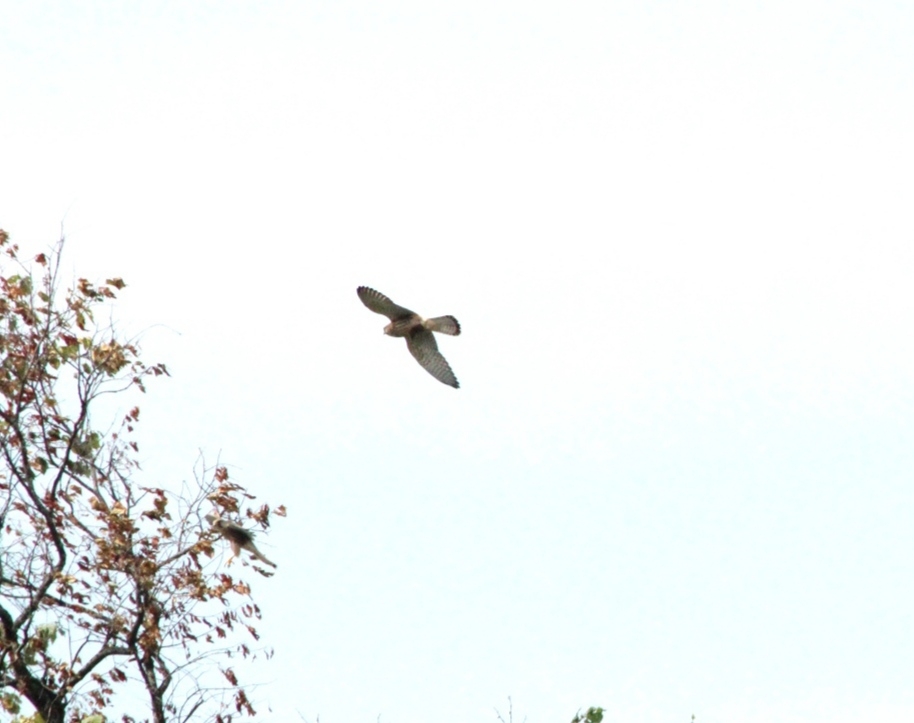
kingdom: Animalia
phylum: Chordata
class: Aves
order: Falconiformes
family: Falconidae
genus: Falco
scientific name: Falco tinnunculus
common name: Common kestrel
